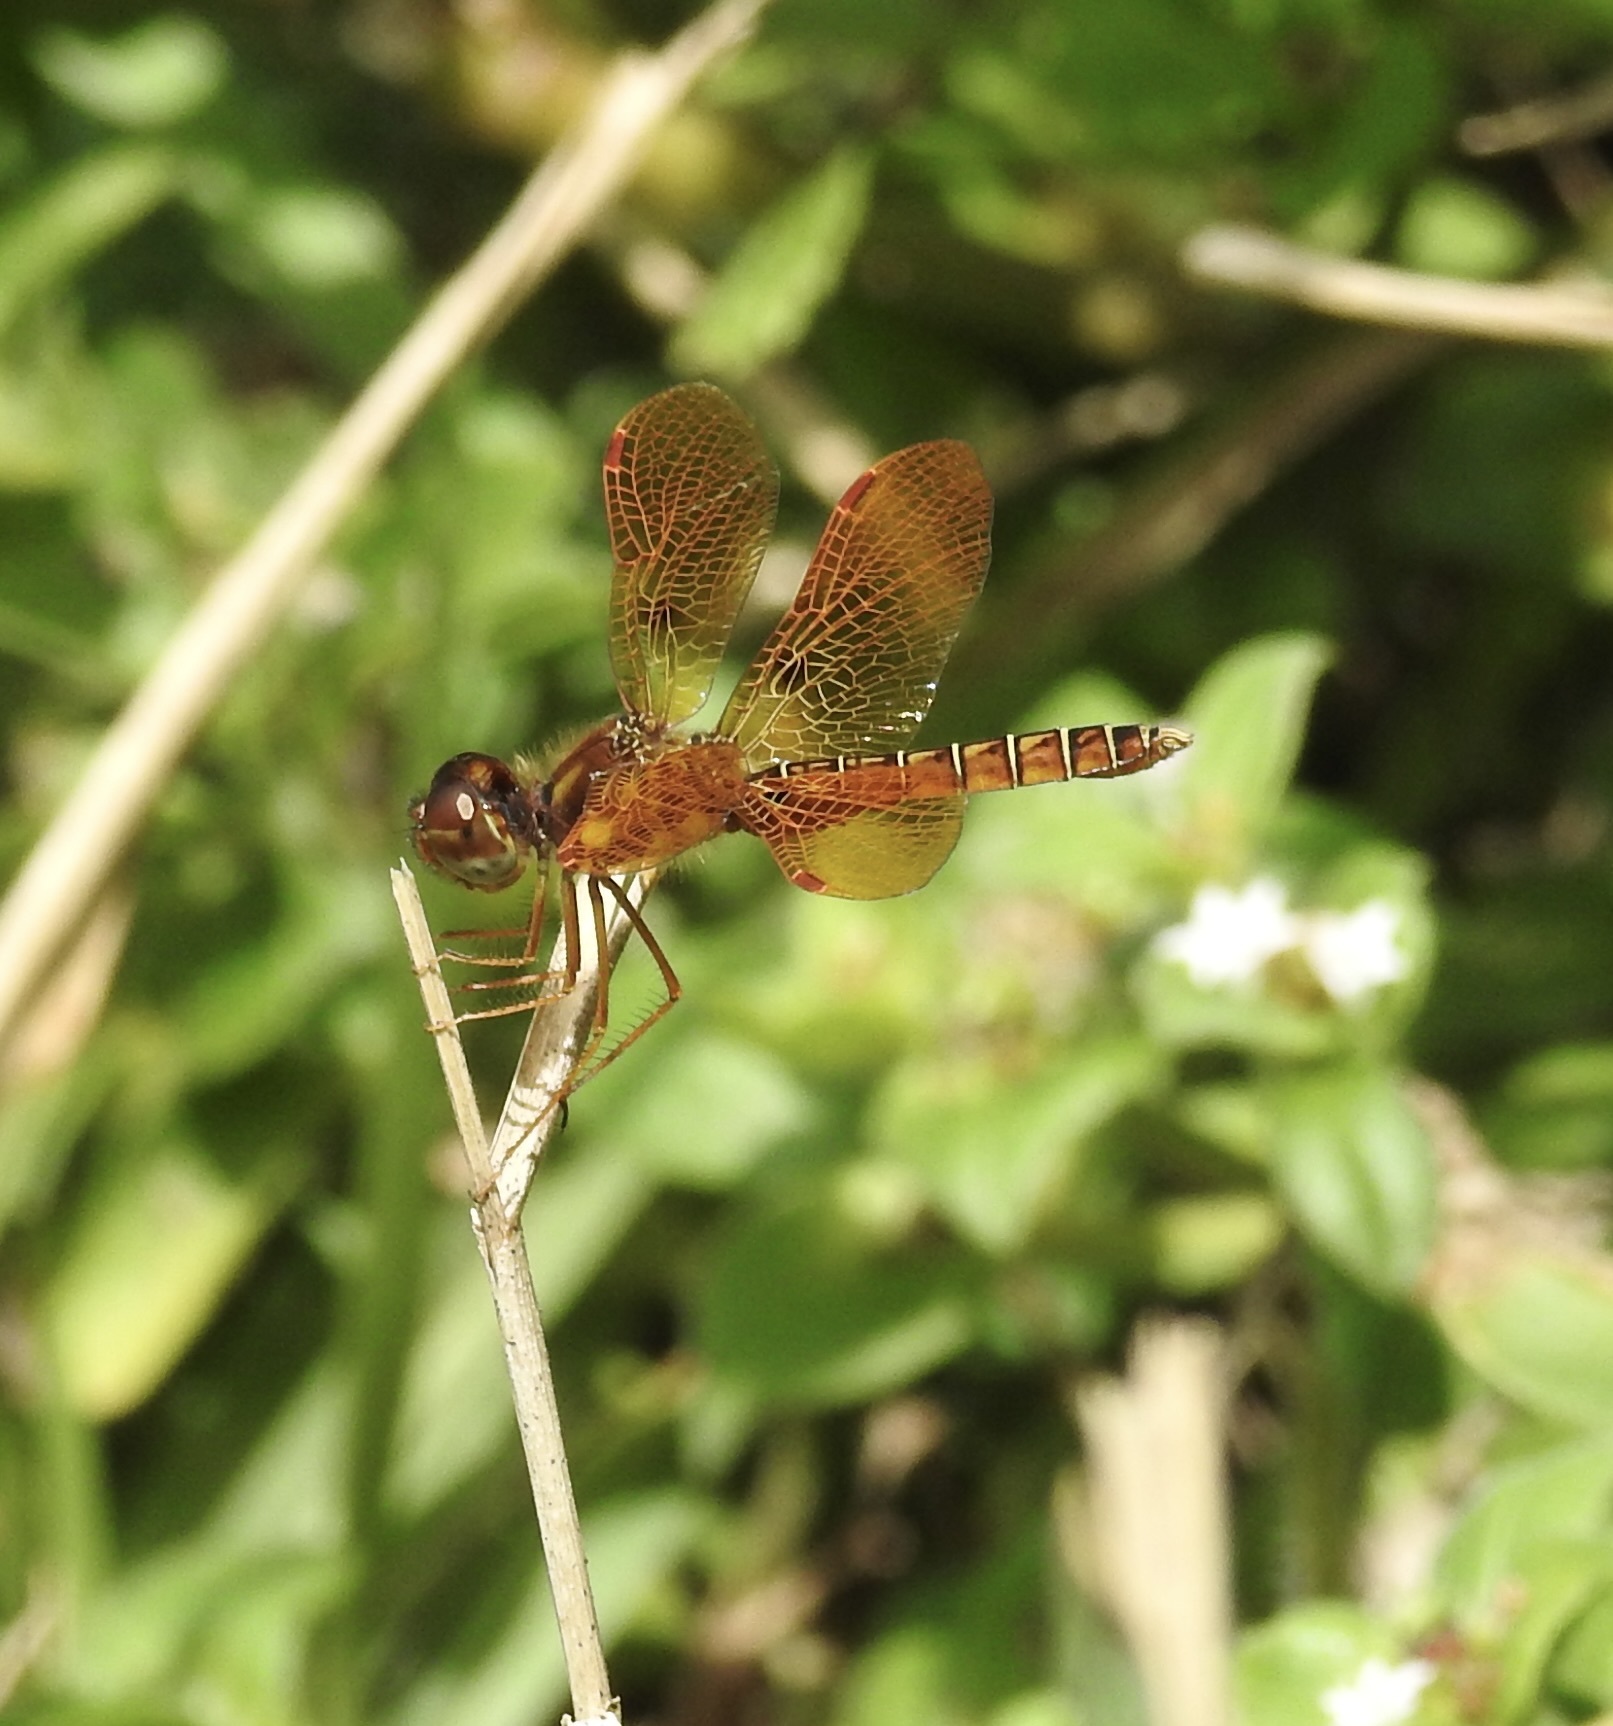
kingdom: Animalia
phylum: Arthropoda
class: Insecta
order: Odonata
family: Libellulidae
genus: Perithemis
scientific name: Perithemis tenera
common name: Eastern amberwing
